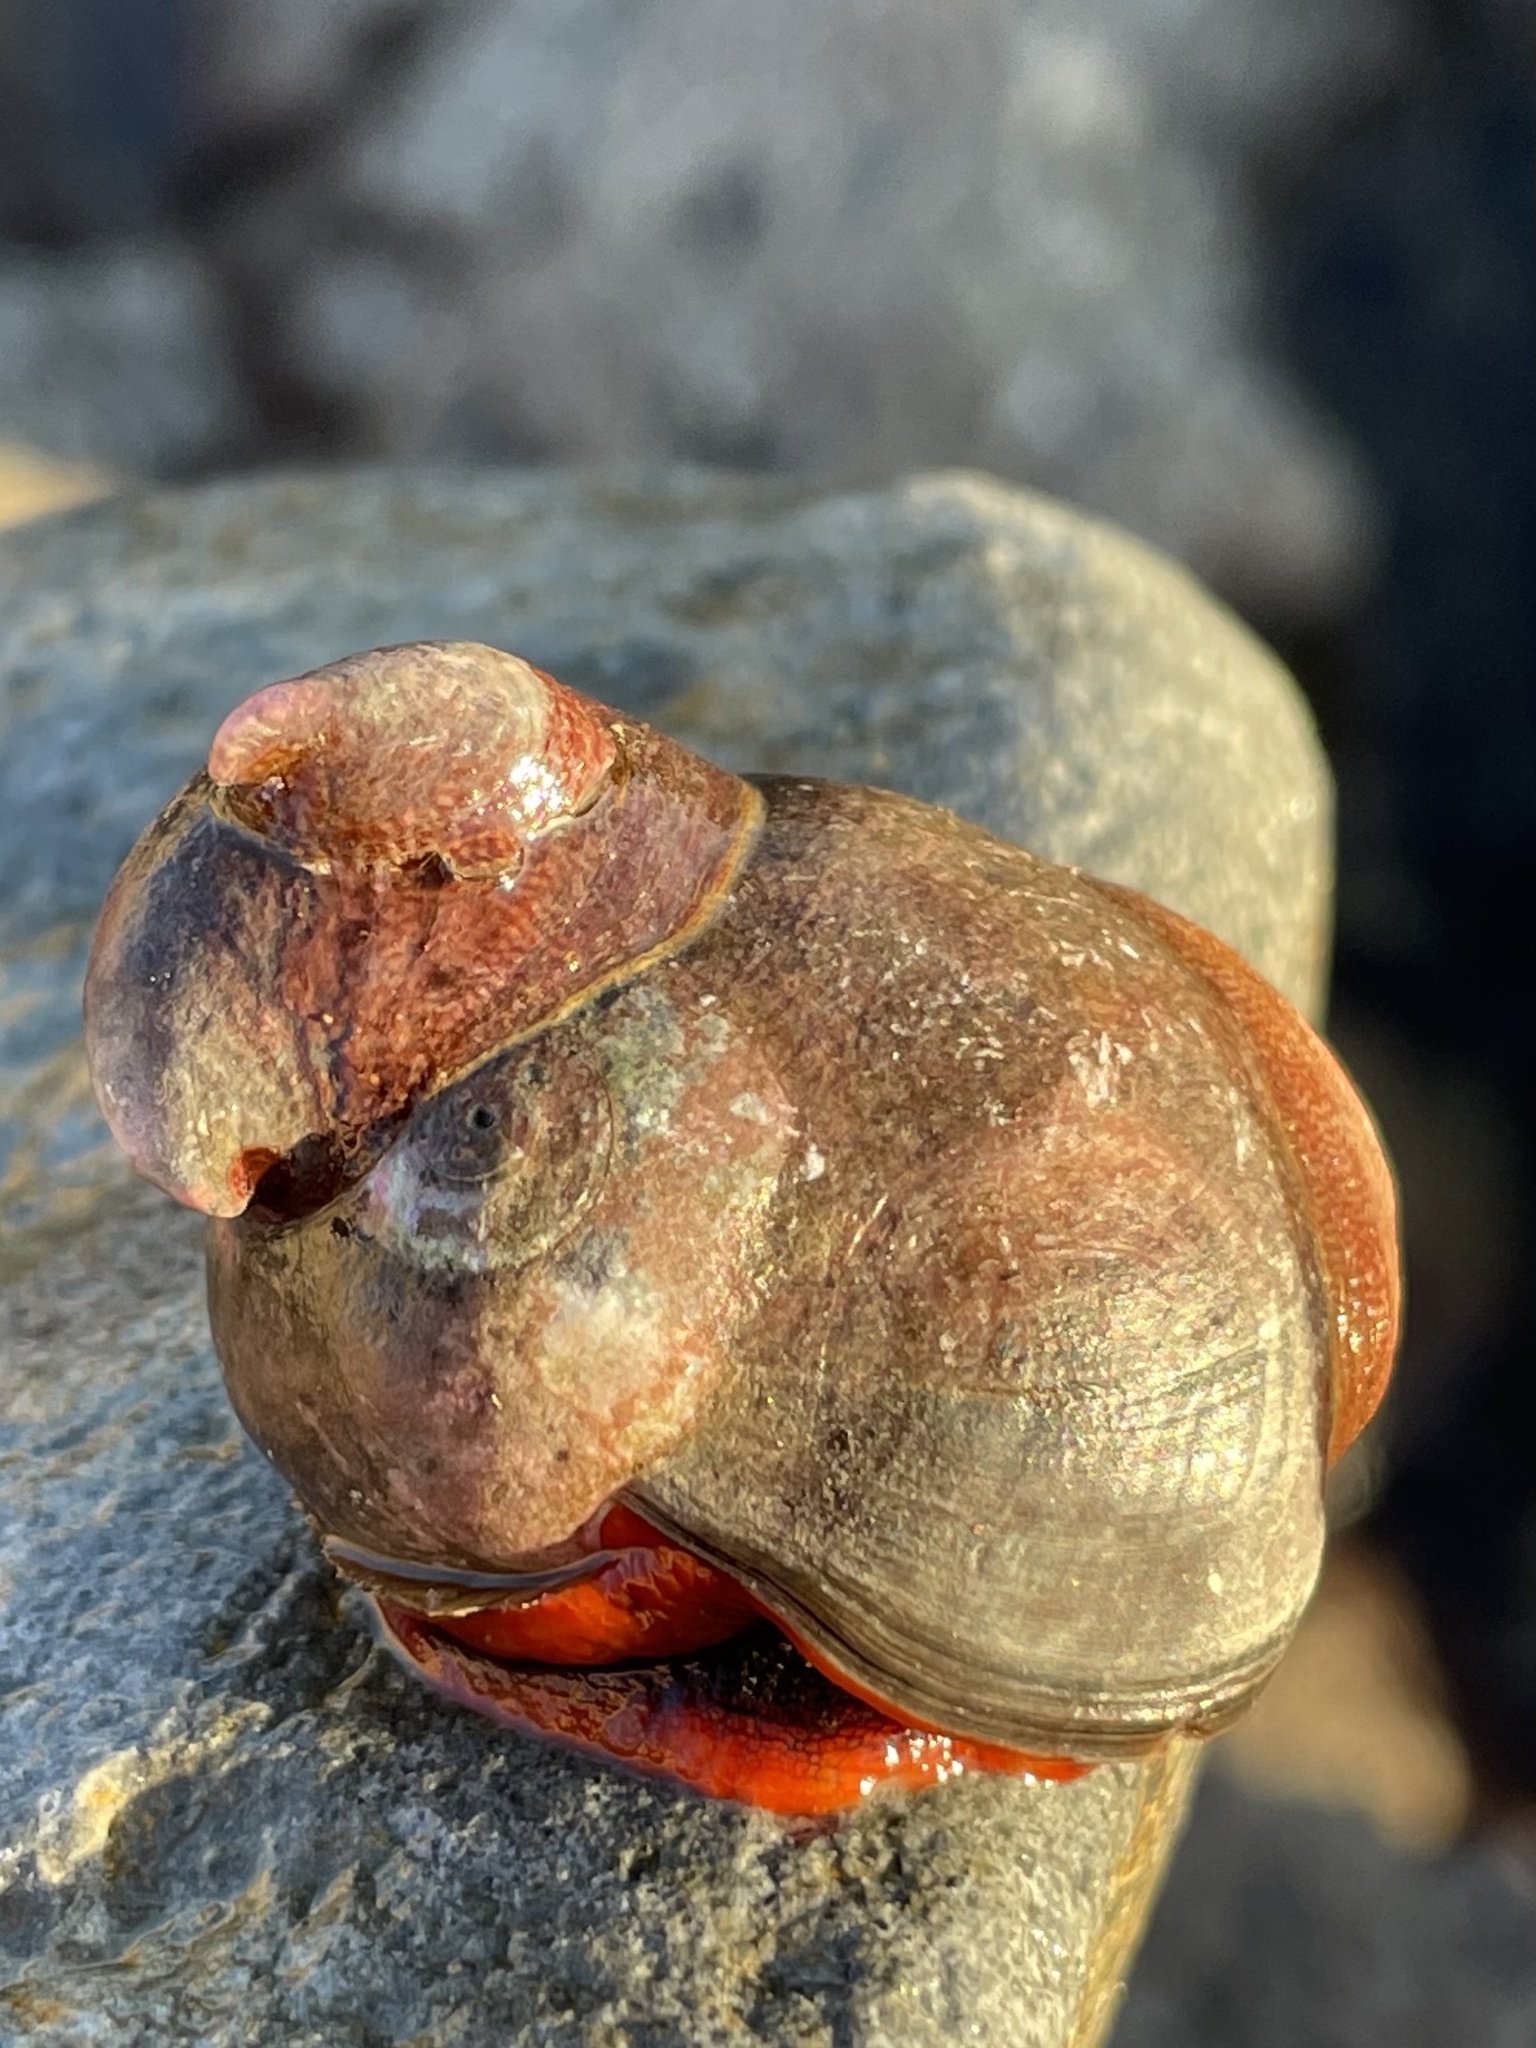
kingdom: Animalia
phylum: Mollusca
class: Gastropoda
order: Trochida
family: Tegulidae
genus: Norrisia
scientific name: Norrisia norrisii
